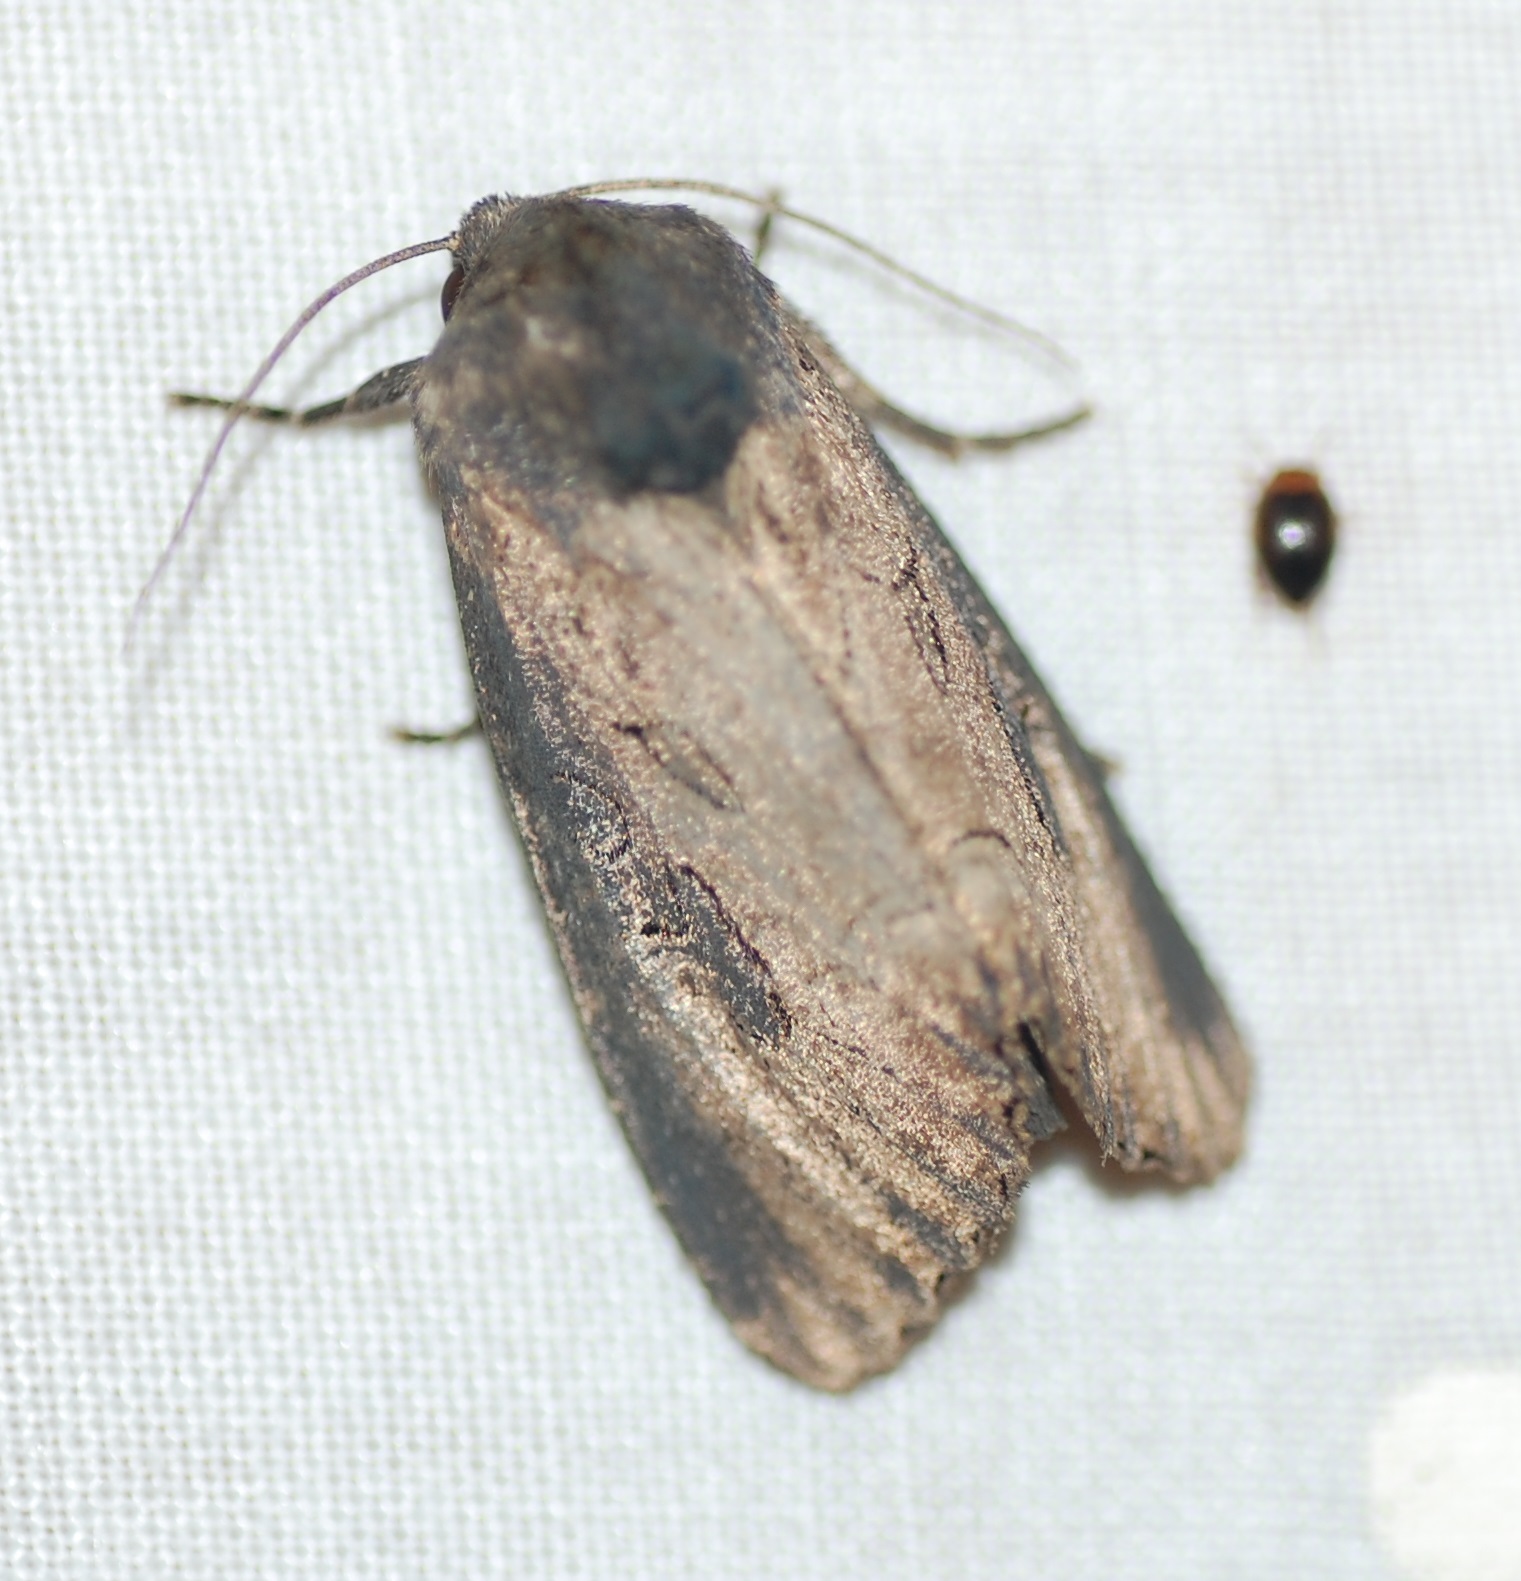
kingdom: Animalia
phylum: Arthropoda
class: Insecta
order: Lepidoptera
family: Noctuidae
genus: Macronoctua
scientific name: Macronoctua onusta
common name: Iris borer
